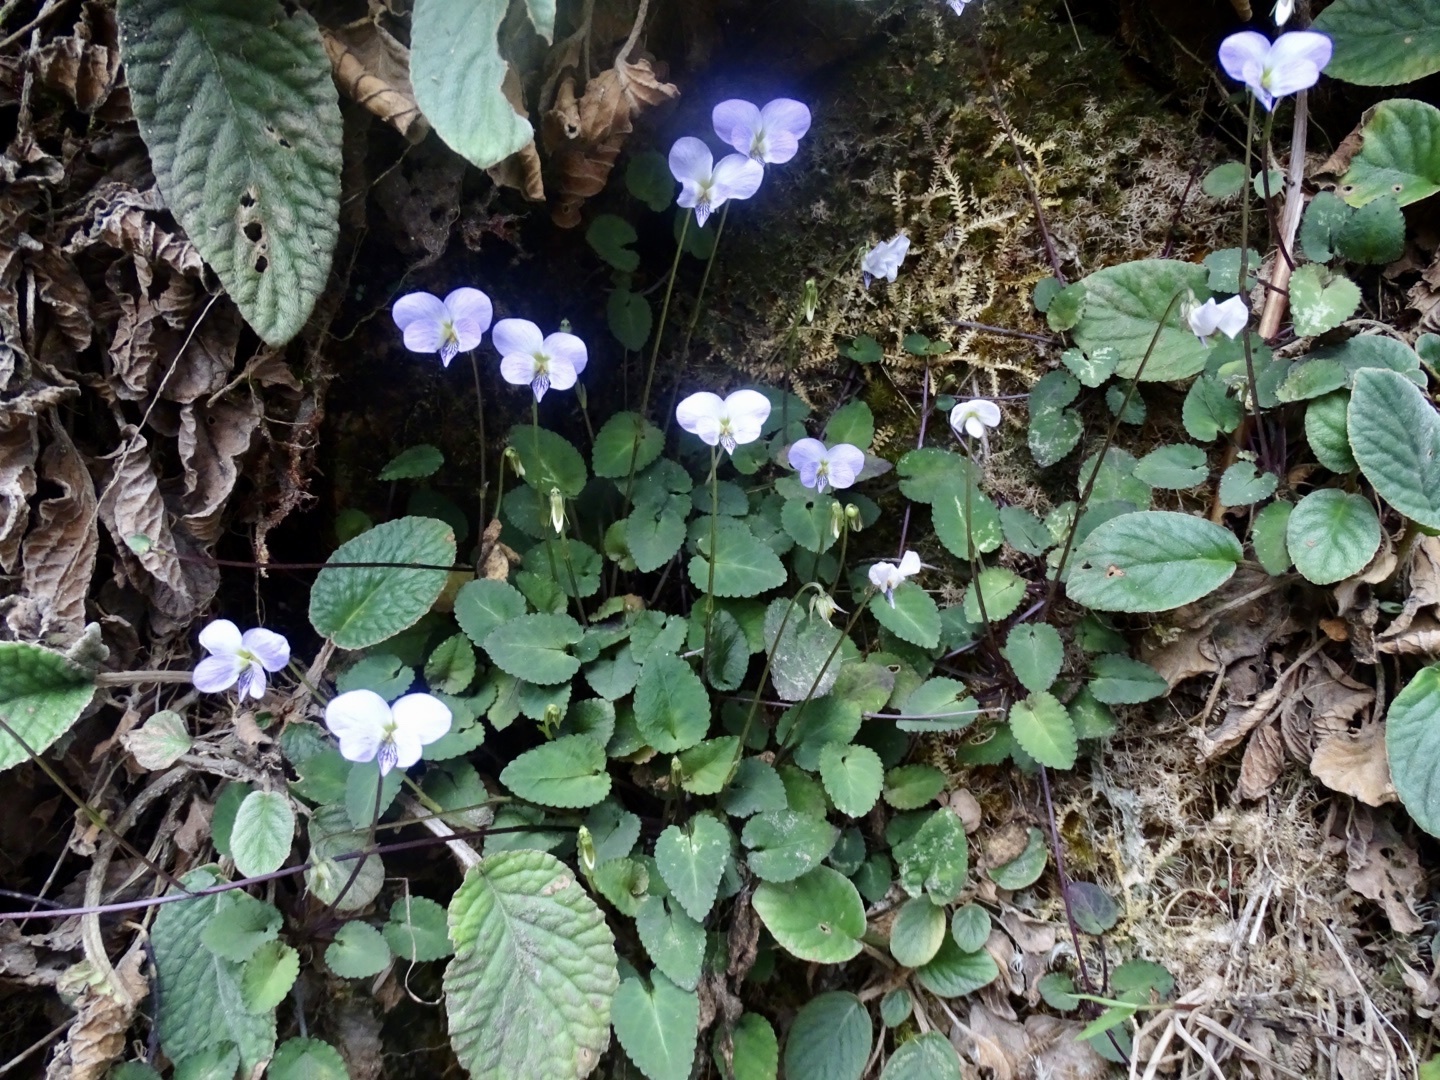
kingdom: Plantae
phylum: Tracheophyta
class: Magnoliopsida
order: Malpighiales
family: Violaceae
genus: Viola
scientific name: Viola diffusa
